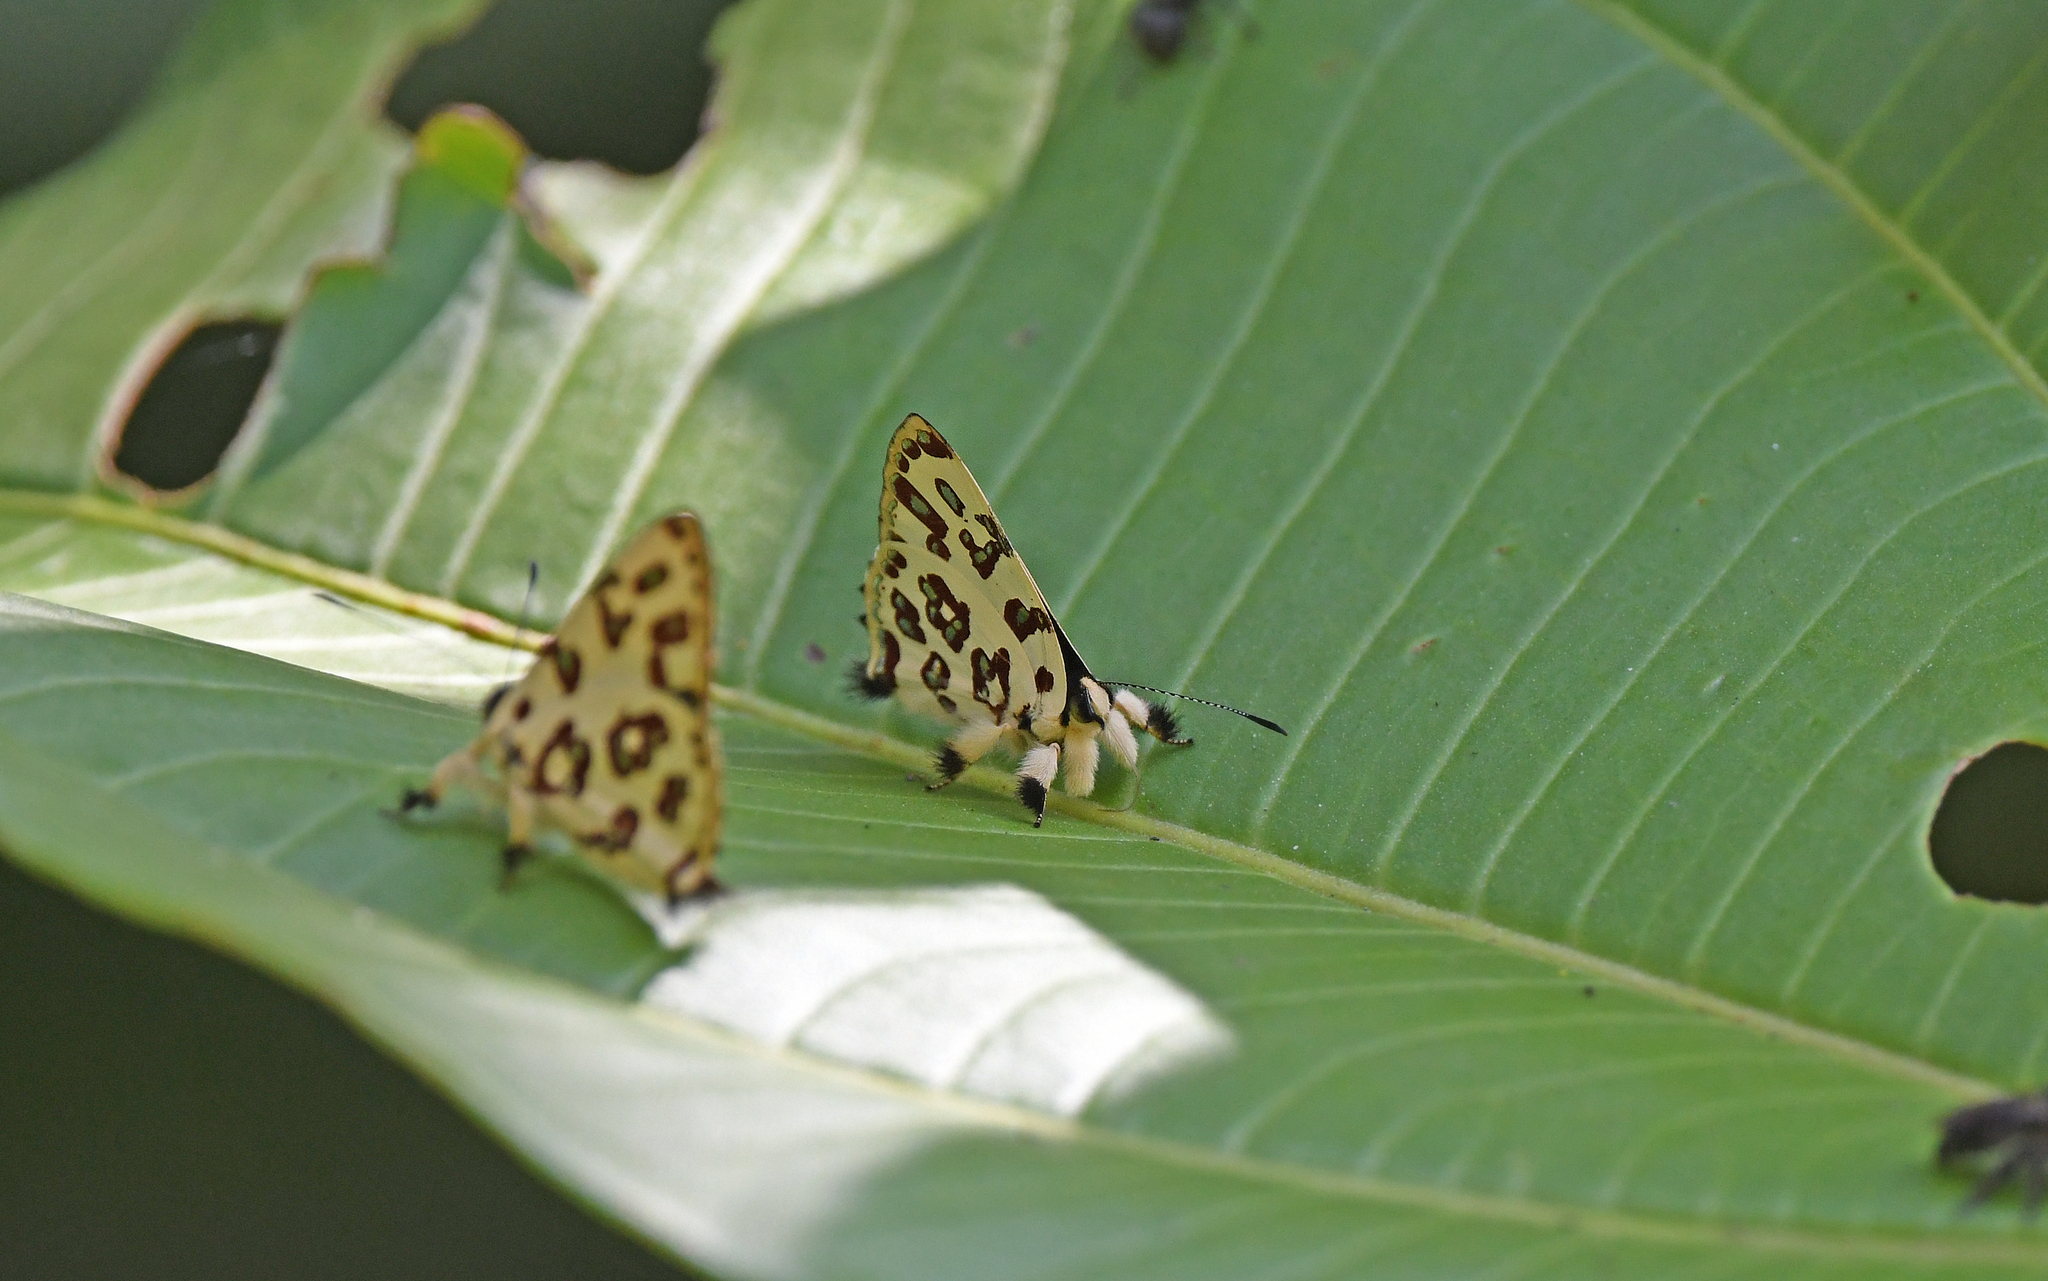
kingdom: Animalia
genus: Anteros
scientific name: Anteros bracteatus
